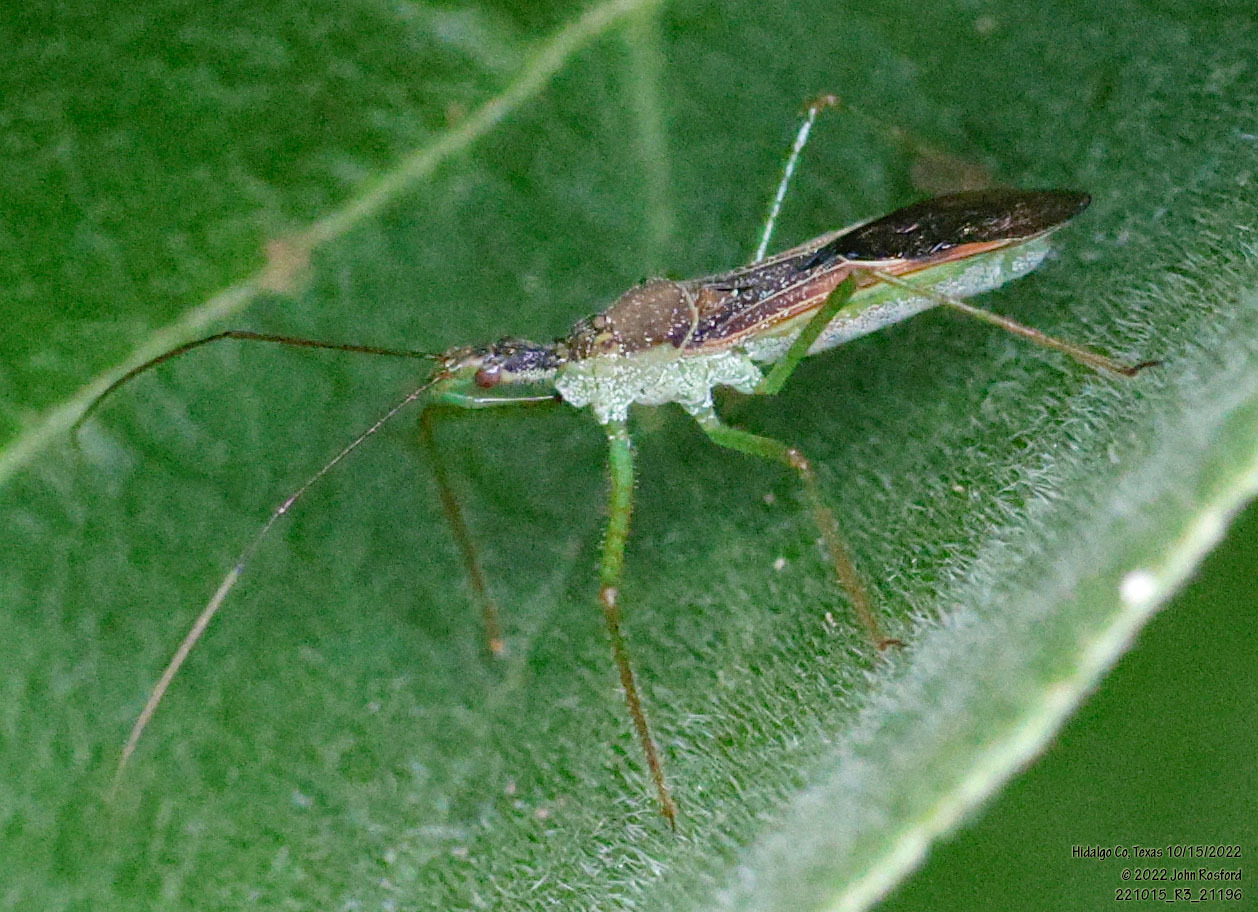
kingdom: Animalia
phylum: Arthropoda
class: Insecta
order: Hemiptera
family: Reduviidae
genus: Zelus
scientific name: Zelus renardii
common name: Assassin bug
